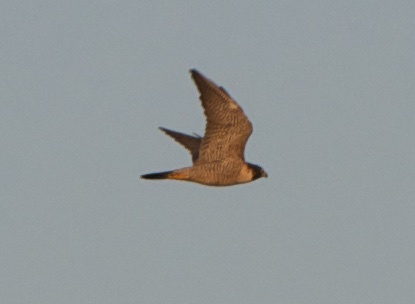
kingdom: Animalia
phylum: Chordata
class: Aves
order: Falconiformes
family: Falconidae
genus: Falco
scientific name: Falco peregrinus
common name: Peregrine falcon
